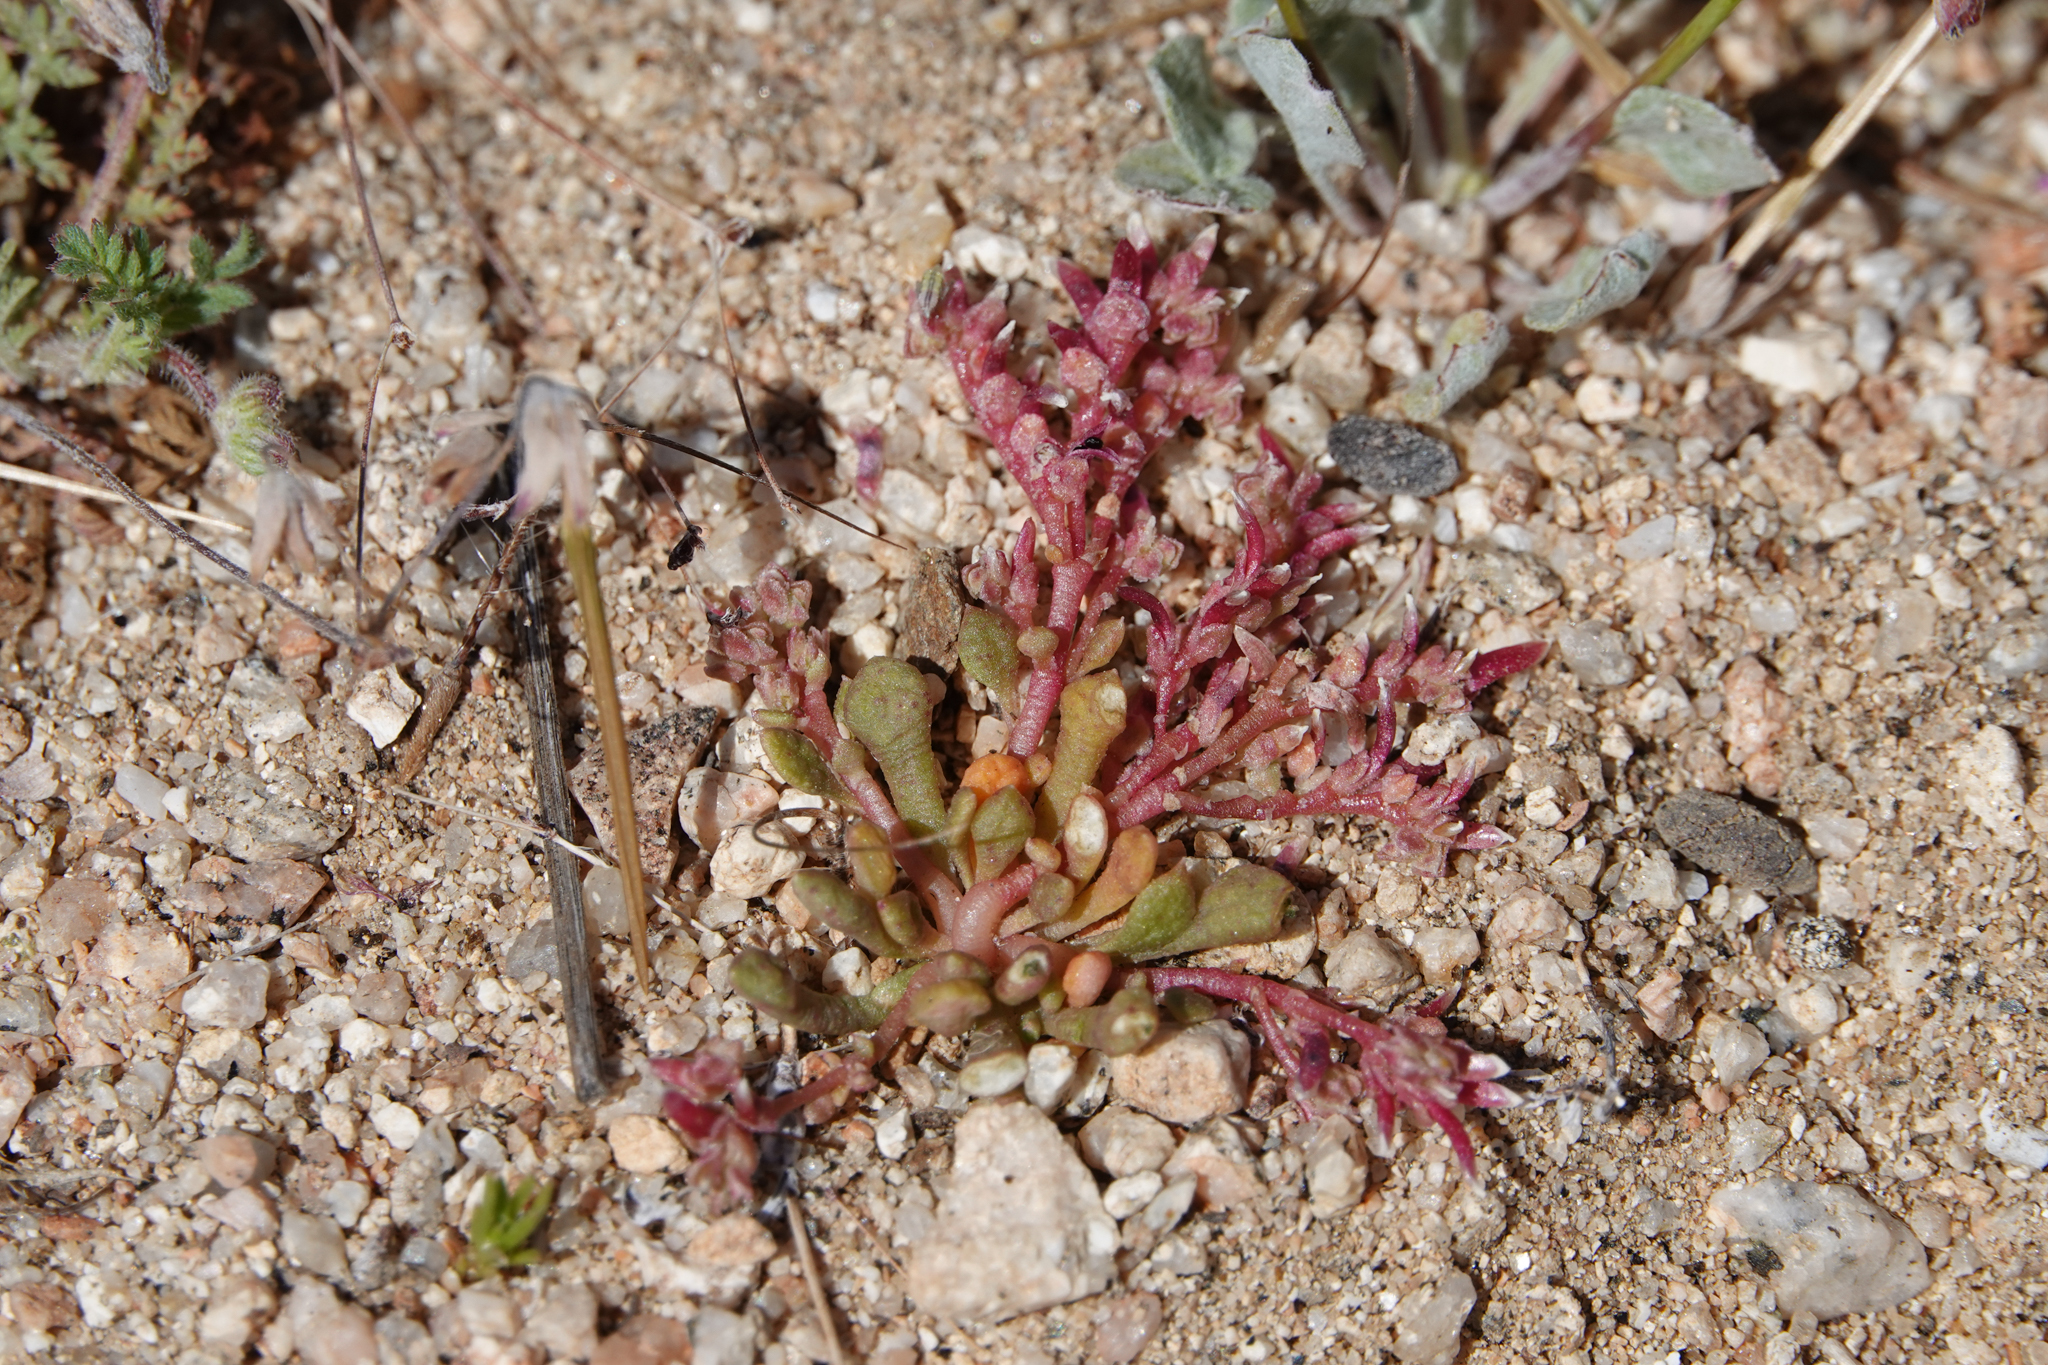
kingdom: Plantae
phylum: Tracheophyta
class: Magnoliopsida
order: Caryophyllales
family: Montiaceae
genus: Calyptridium
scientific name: Calyptridium monandrum
